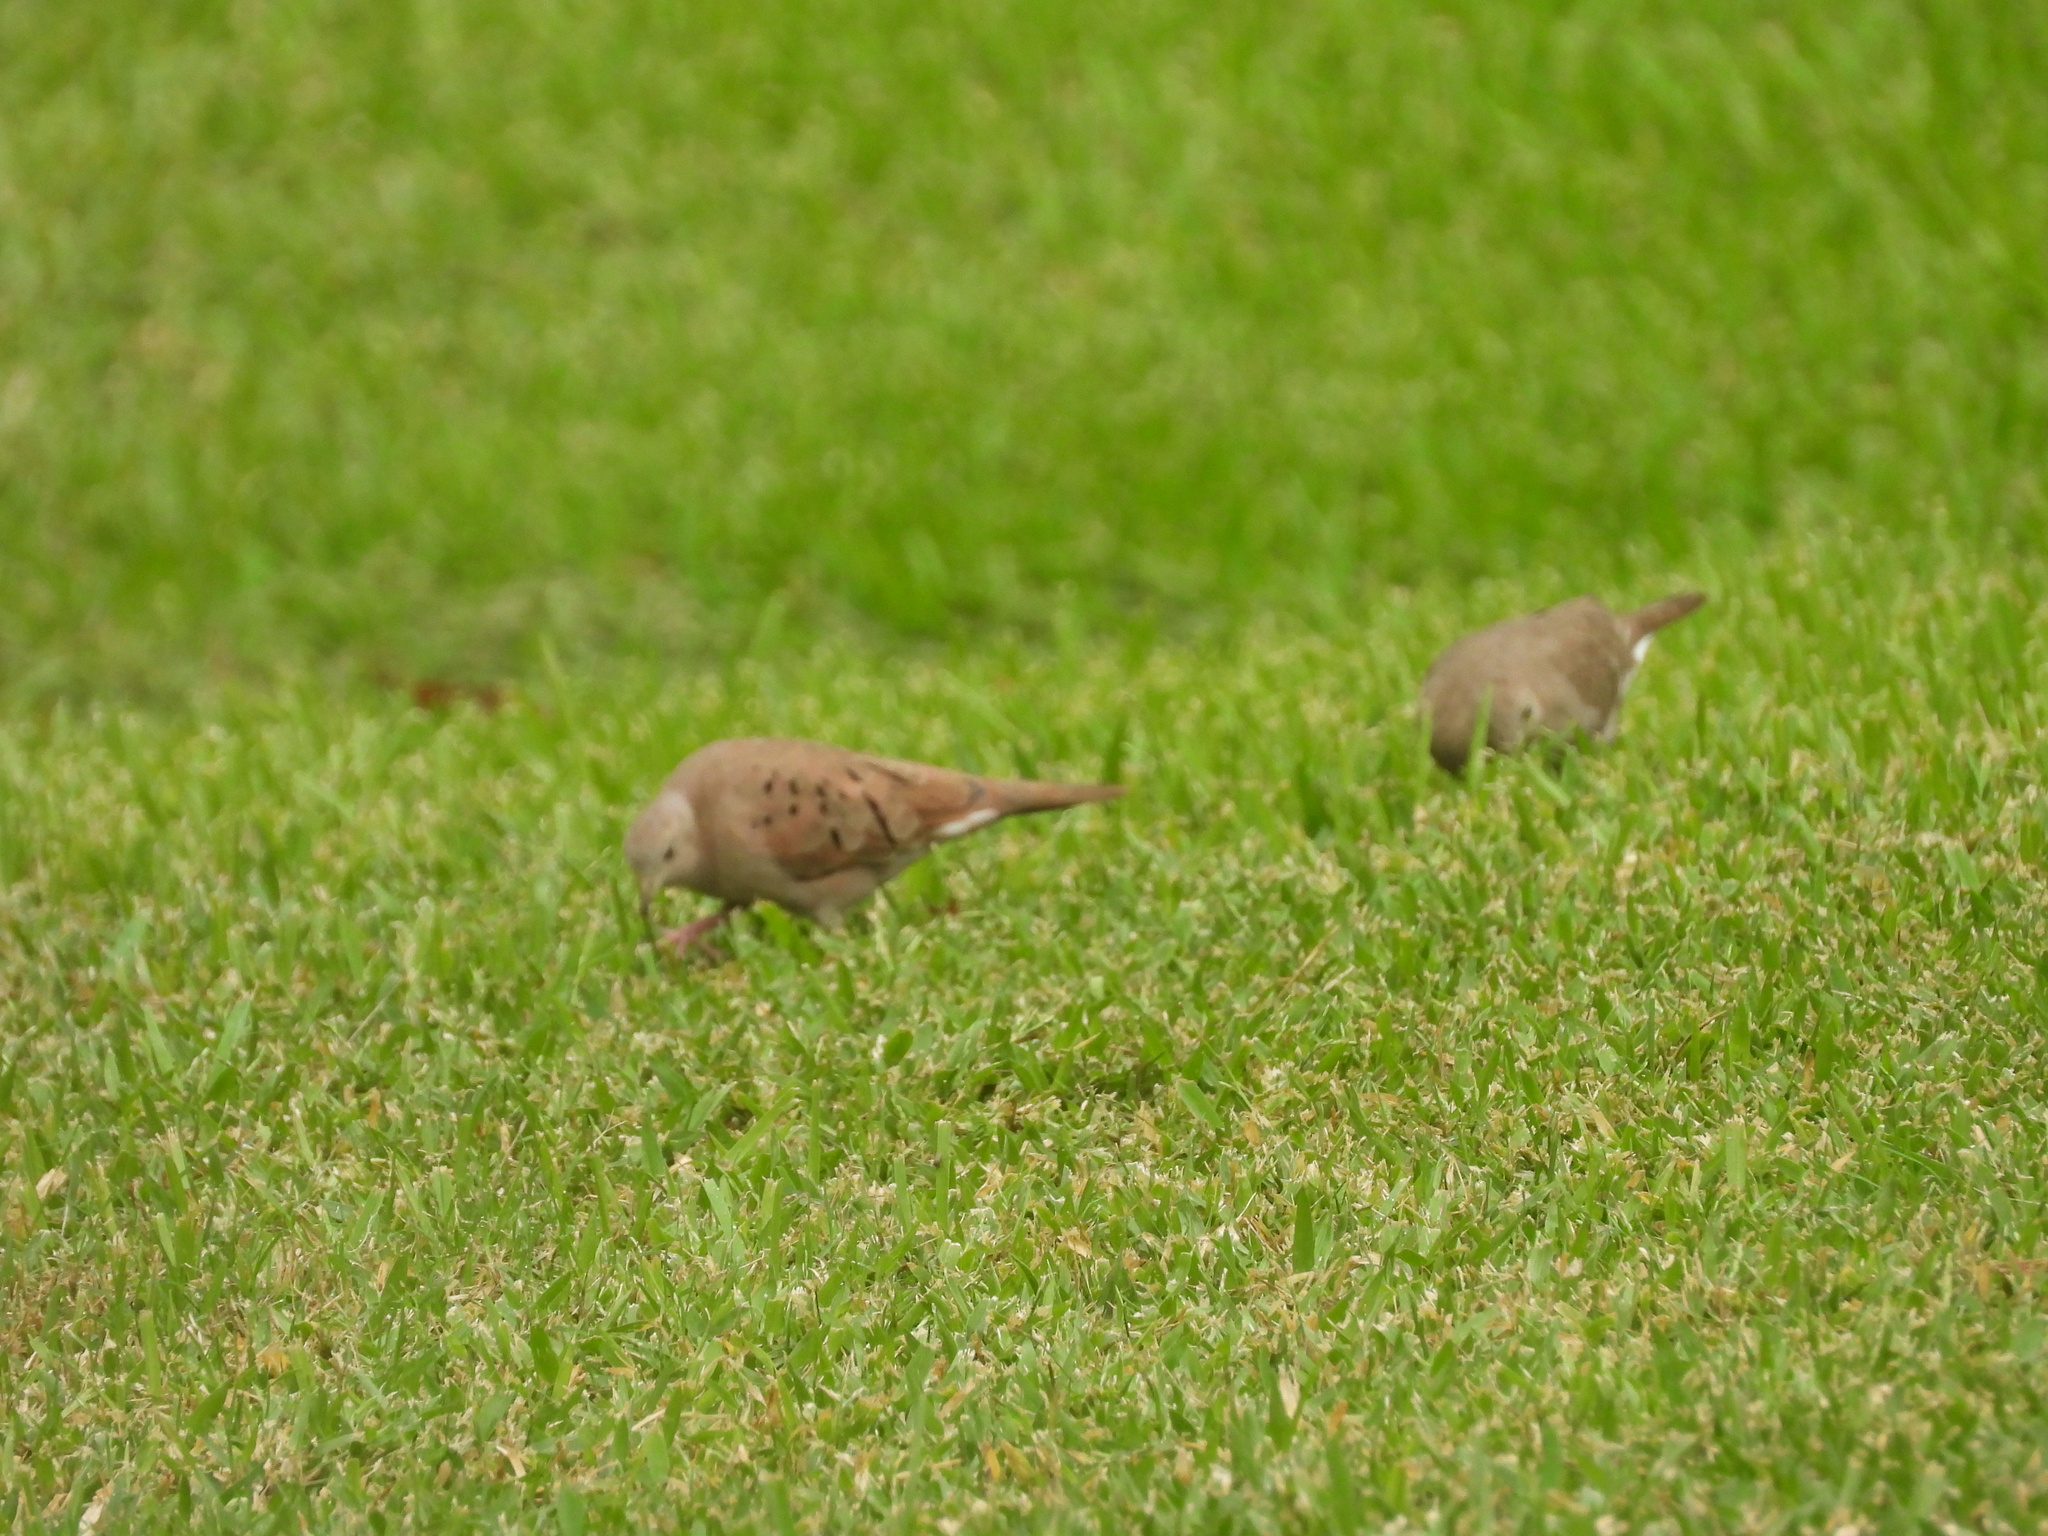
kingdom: Animalia
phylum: Chordata
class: Aves
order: Columbiformes
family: Columbidae
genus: Columbina
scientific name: Columbina talpacoti
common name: Ruddy ground dove
